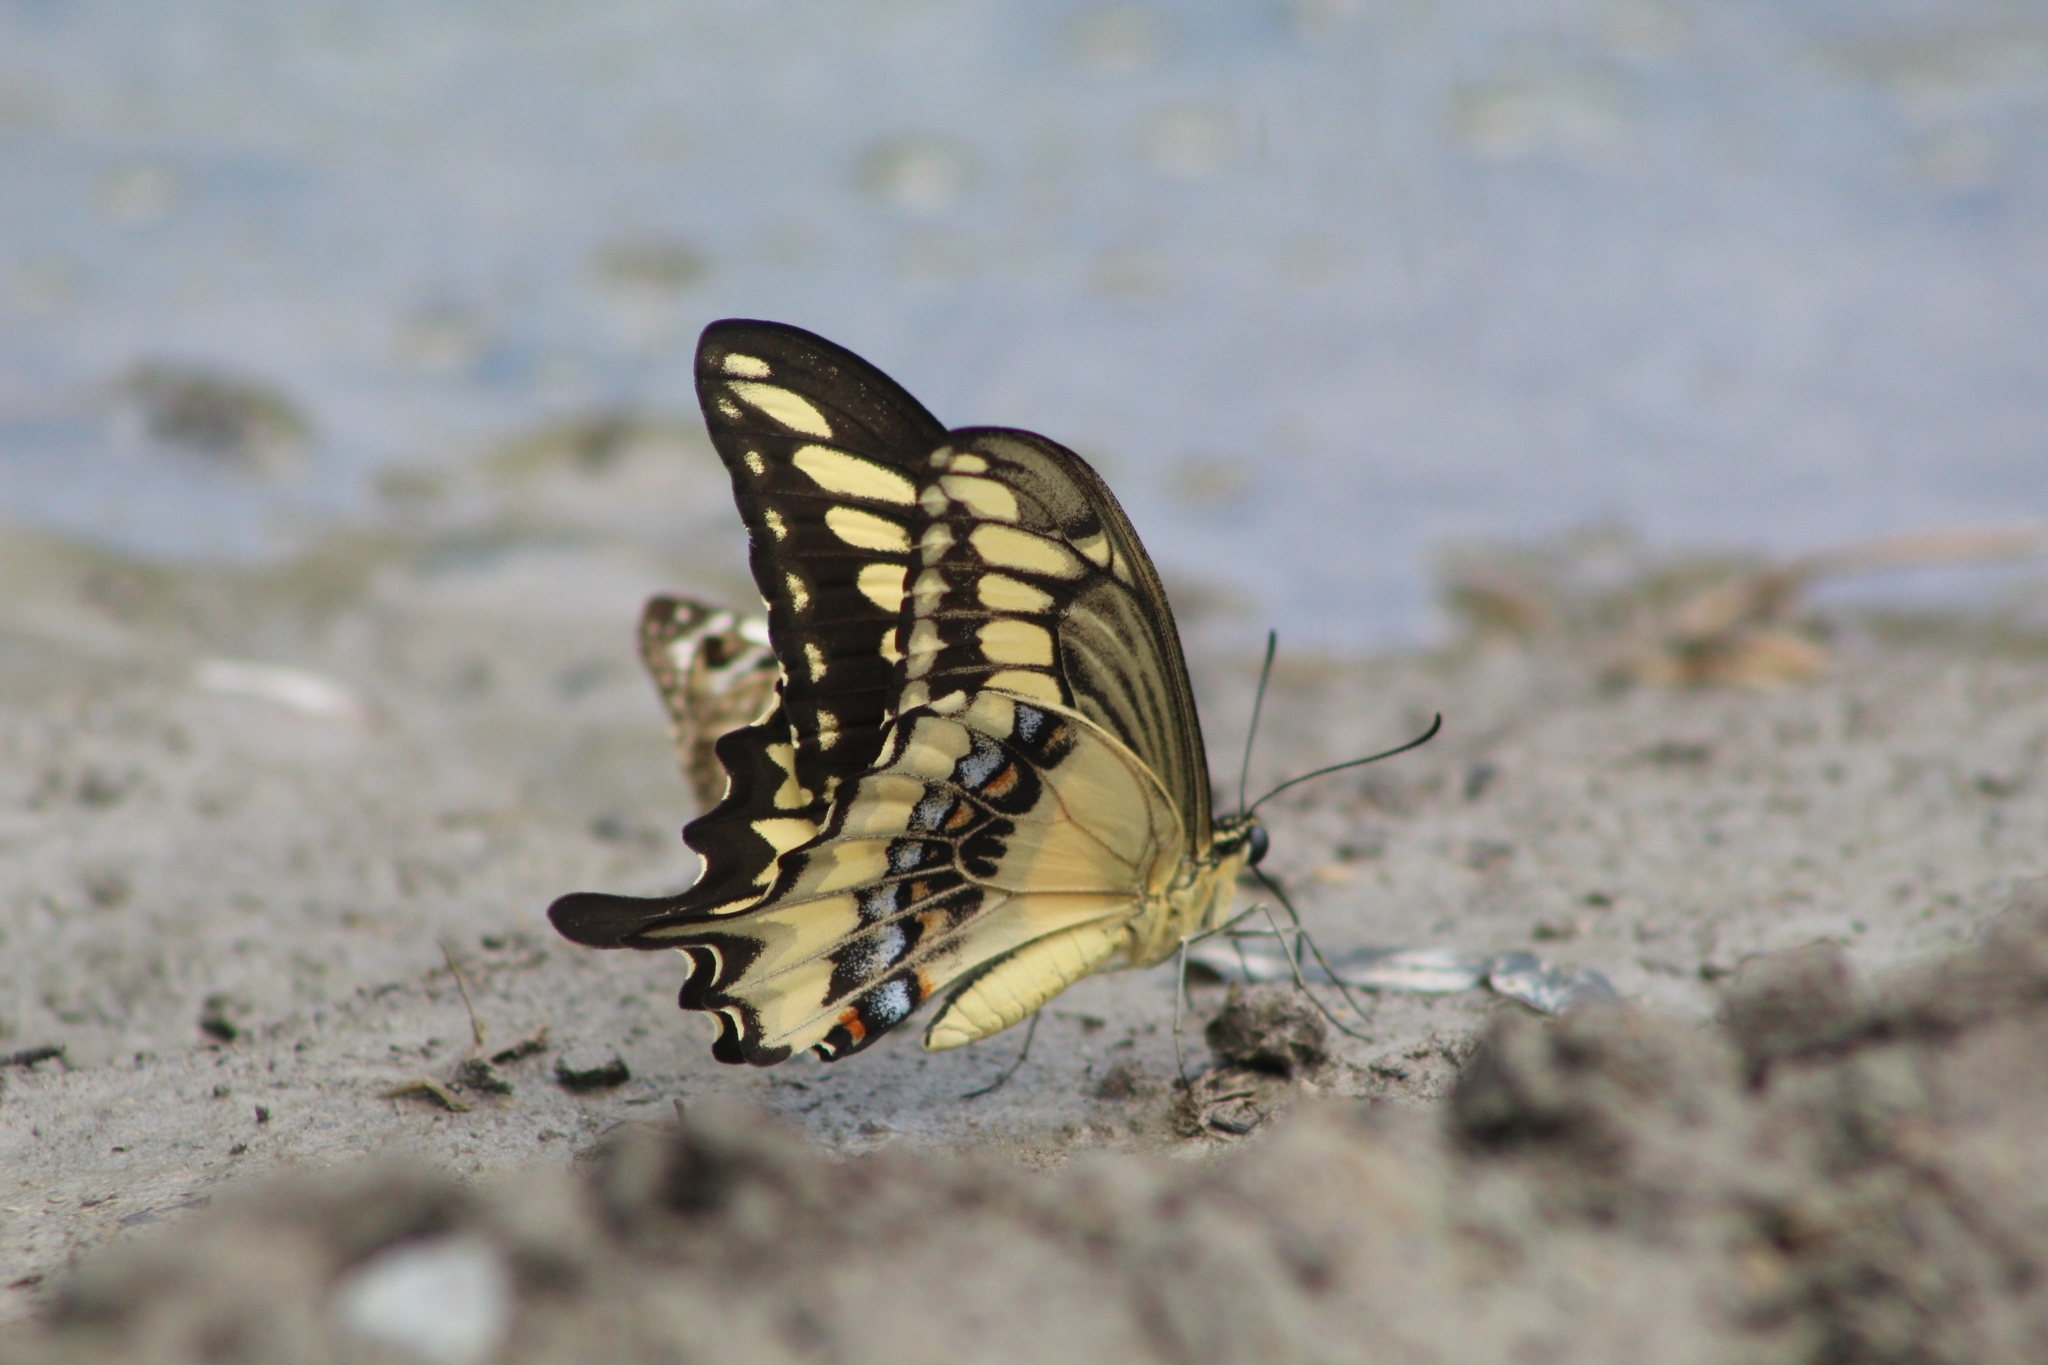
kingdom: Animalia
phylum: Arthropoda
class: Insecta
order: Lepidoptera
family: Papilionidae
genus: Papilio
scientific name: Papilio ornythion
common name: Ornythion swallowtail
